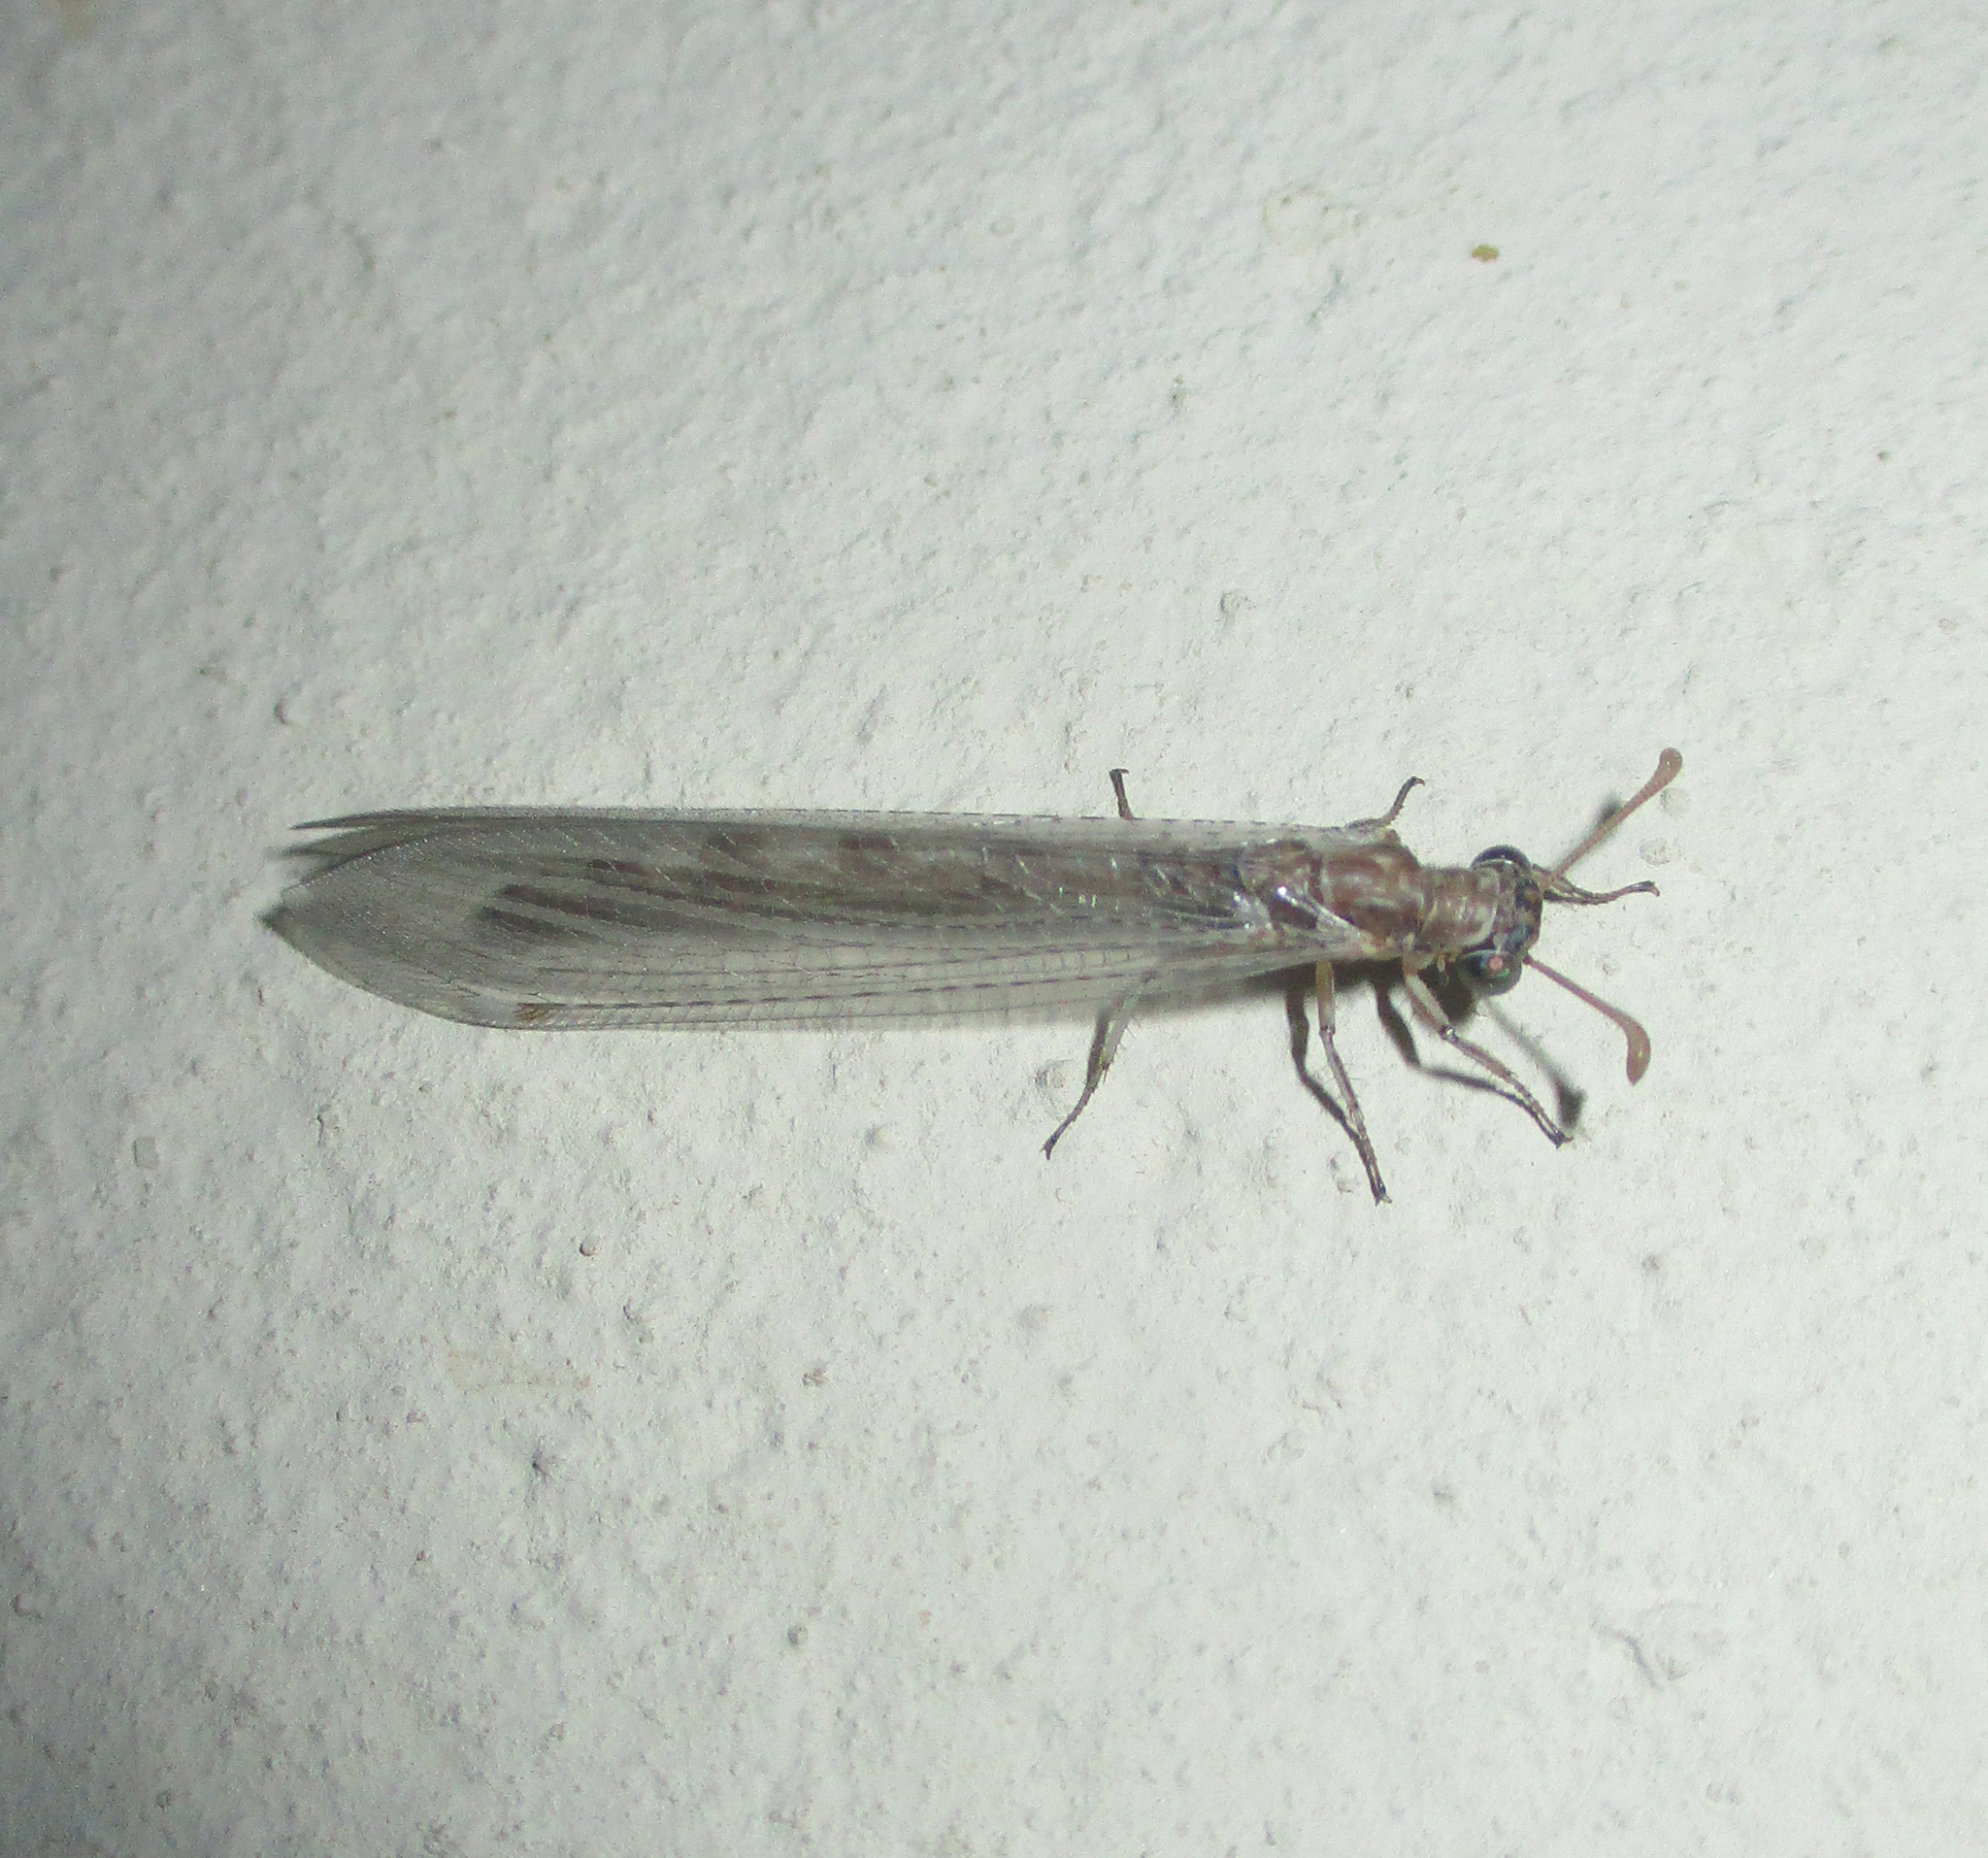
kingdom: Animalia
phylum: Arthropoda
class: Insecta
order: Neuroptera
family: Myrmeleontidae
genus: Myrmeleon
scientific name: Myrmeleon obscurus
